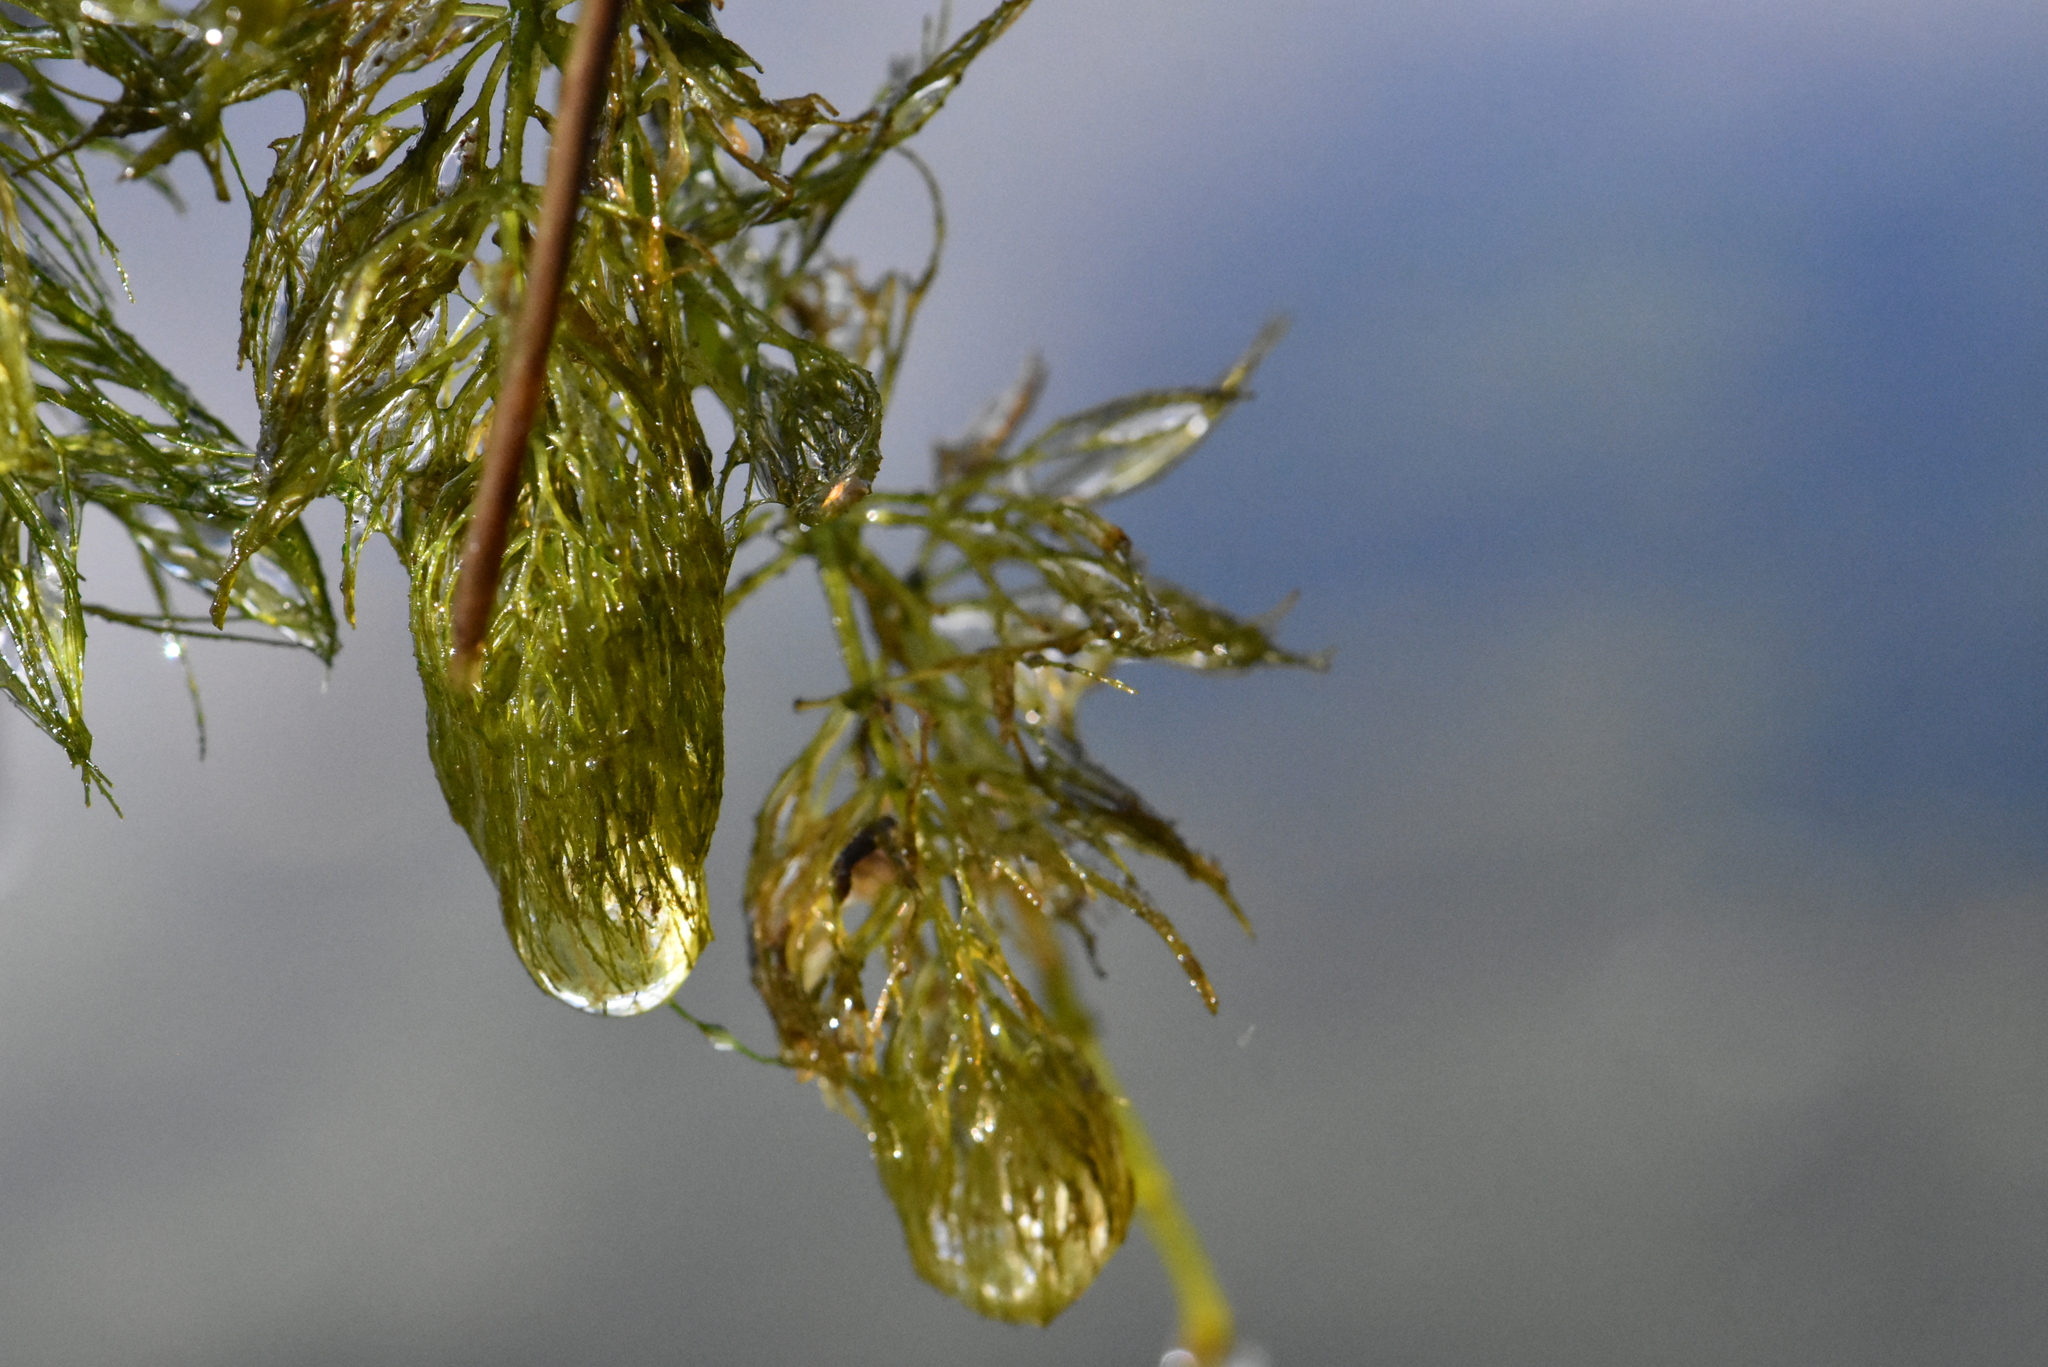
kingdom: Plantae
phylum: Tracheophyta
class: Magnoliopsida
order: Ceratophyllales
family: Ceratophyllaceae
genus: Ceratophyllum
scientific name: Ceratophyllum demersum
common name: Rigid hornwort
